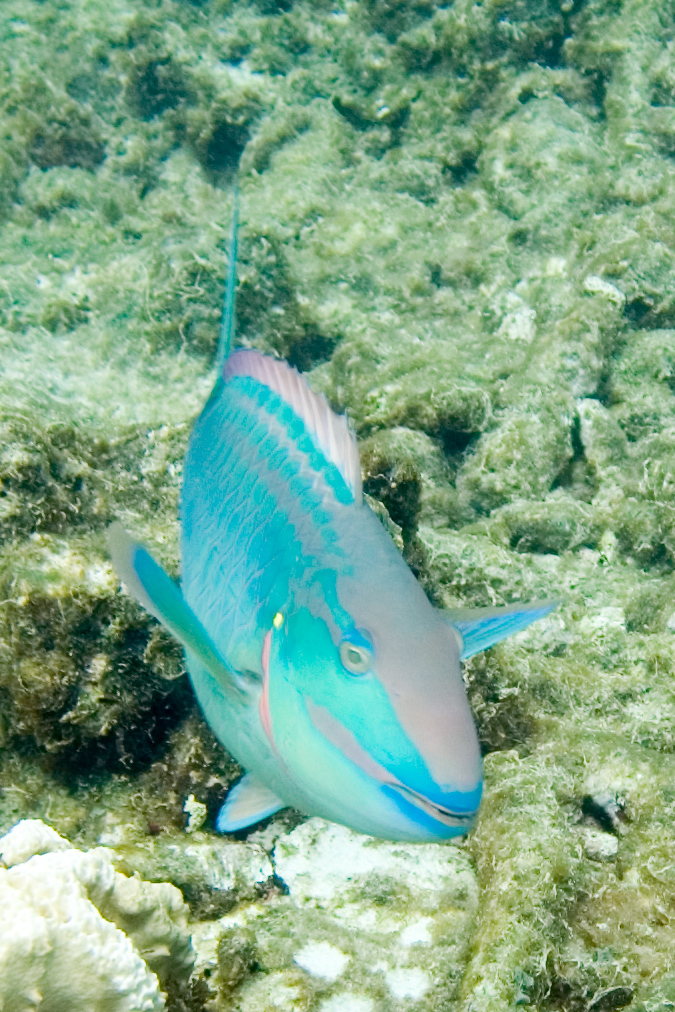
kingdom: Animalia
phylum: Chordata
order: Perciformes
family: Scaridae
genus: Sparisoma
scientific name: Sparisoma viride
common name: Stoplight parrotfish
